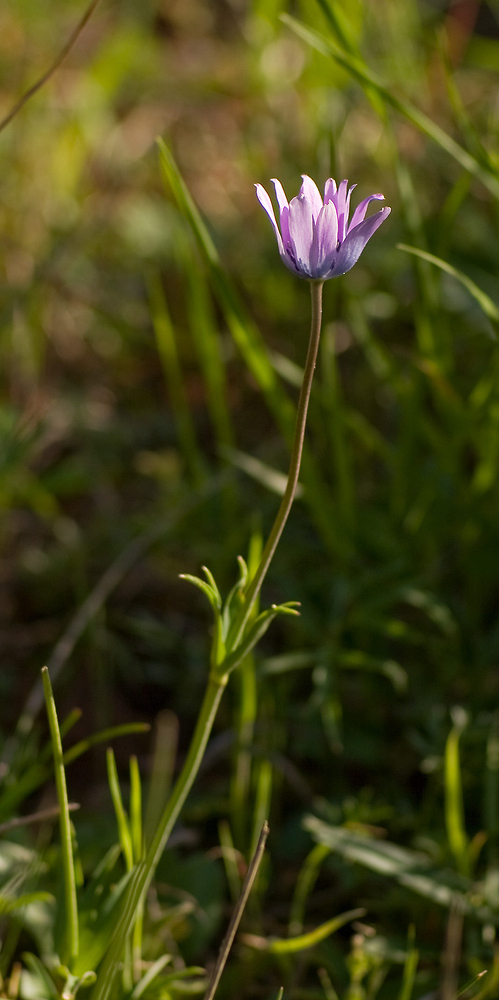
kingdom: Plantae
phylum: Tracheophyta
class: Magnoliopsida
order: Ranunculales
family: Ranunculaceae
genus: Anemone
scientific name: Anemone hortensis
